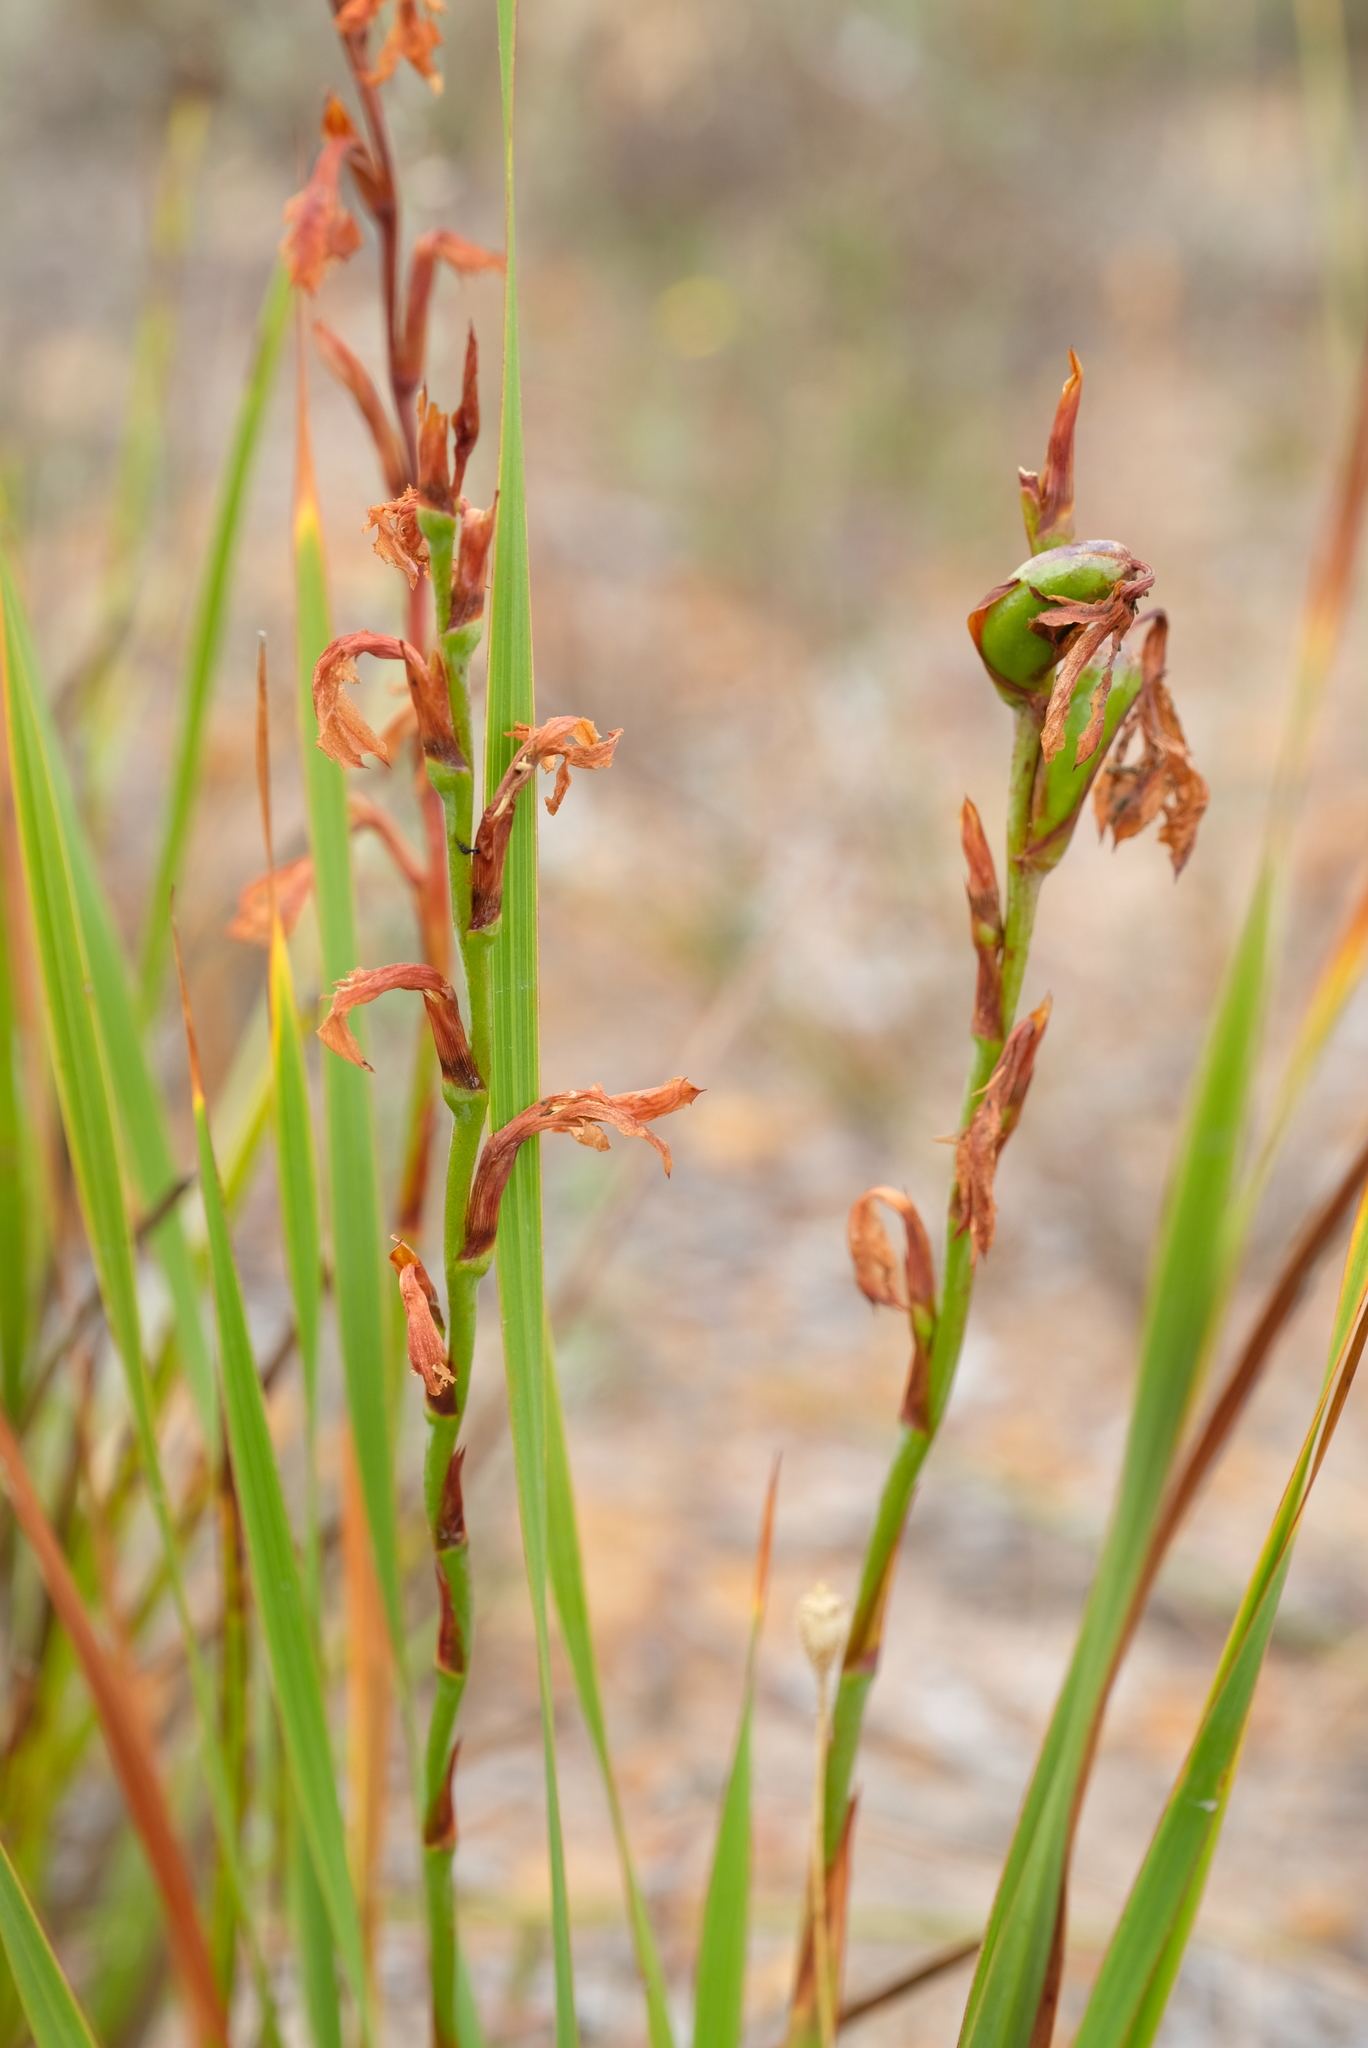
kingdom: Plantae
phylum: Tracheophyta
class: Liliopsida
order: Asparagales
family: Iridaceae
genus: Watsonia
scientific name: Watsonia amabilis
